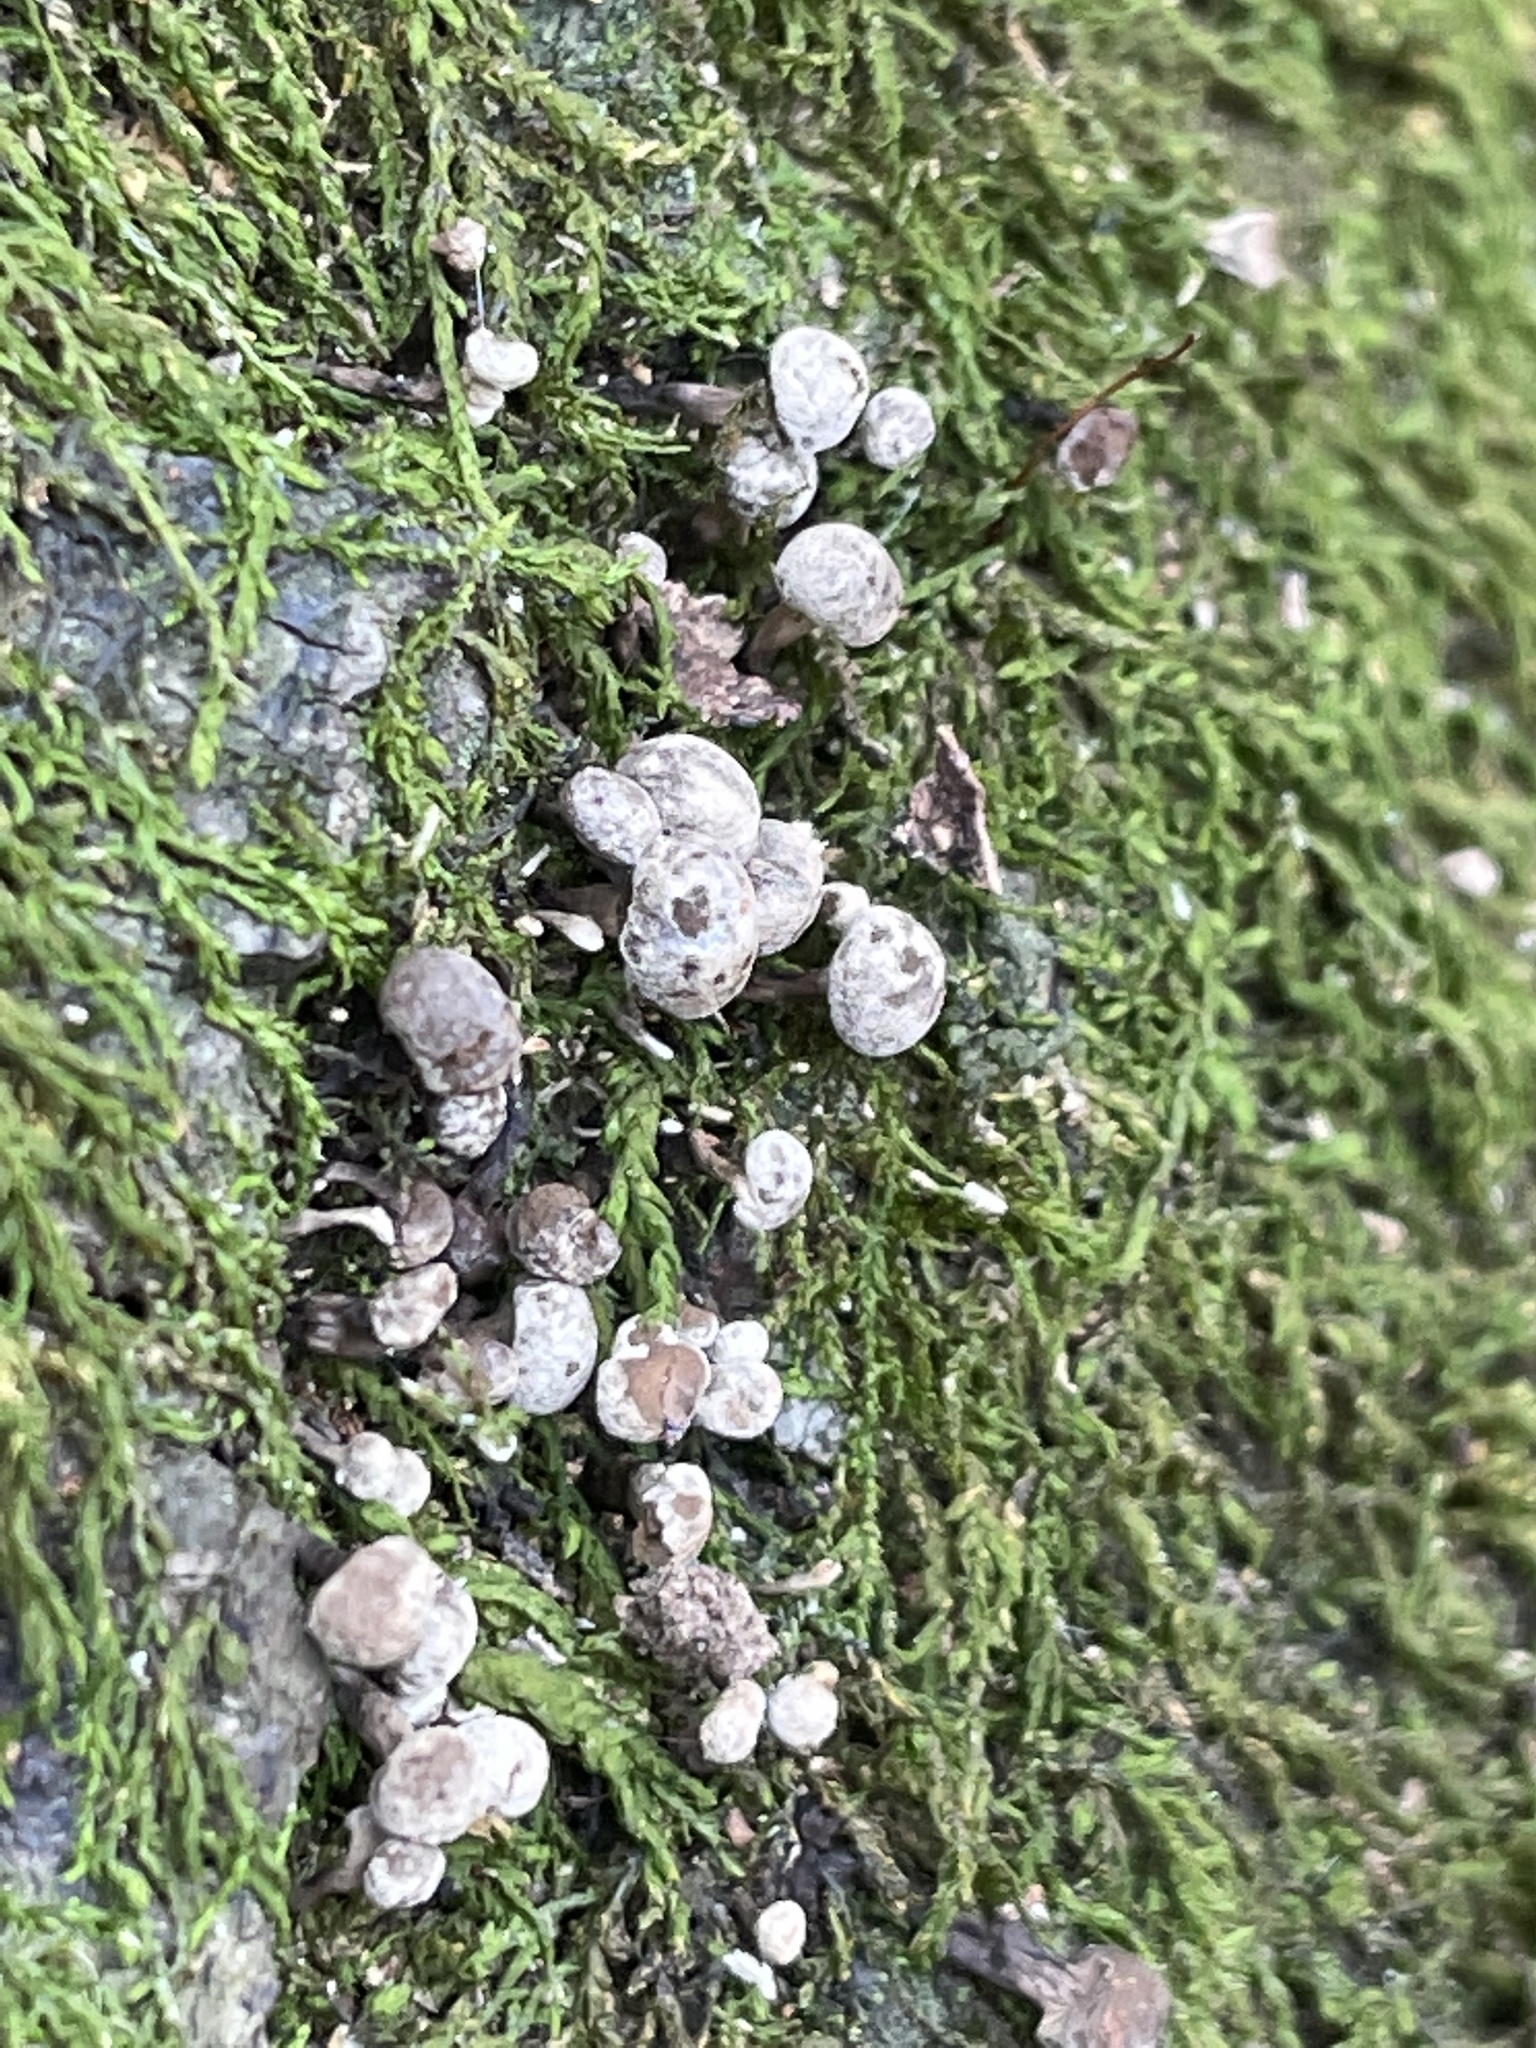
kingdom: Fungi
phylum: Basidiomycota
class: Atractiellomycetes
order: Atractiellales
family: Phleogenaceae
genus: Phleogena
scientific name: Phleogena faginea
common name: Fenugreek stalkball
